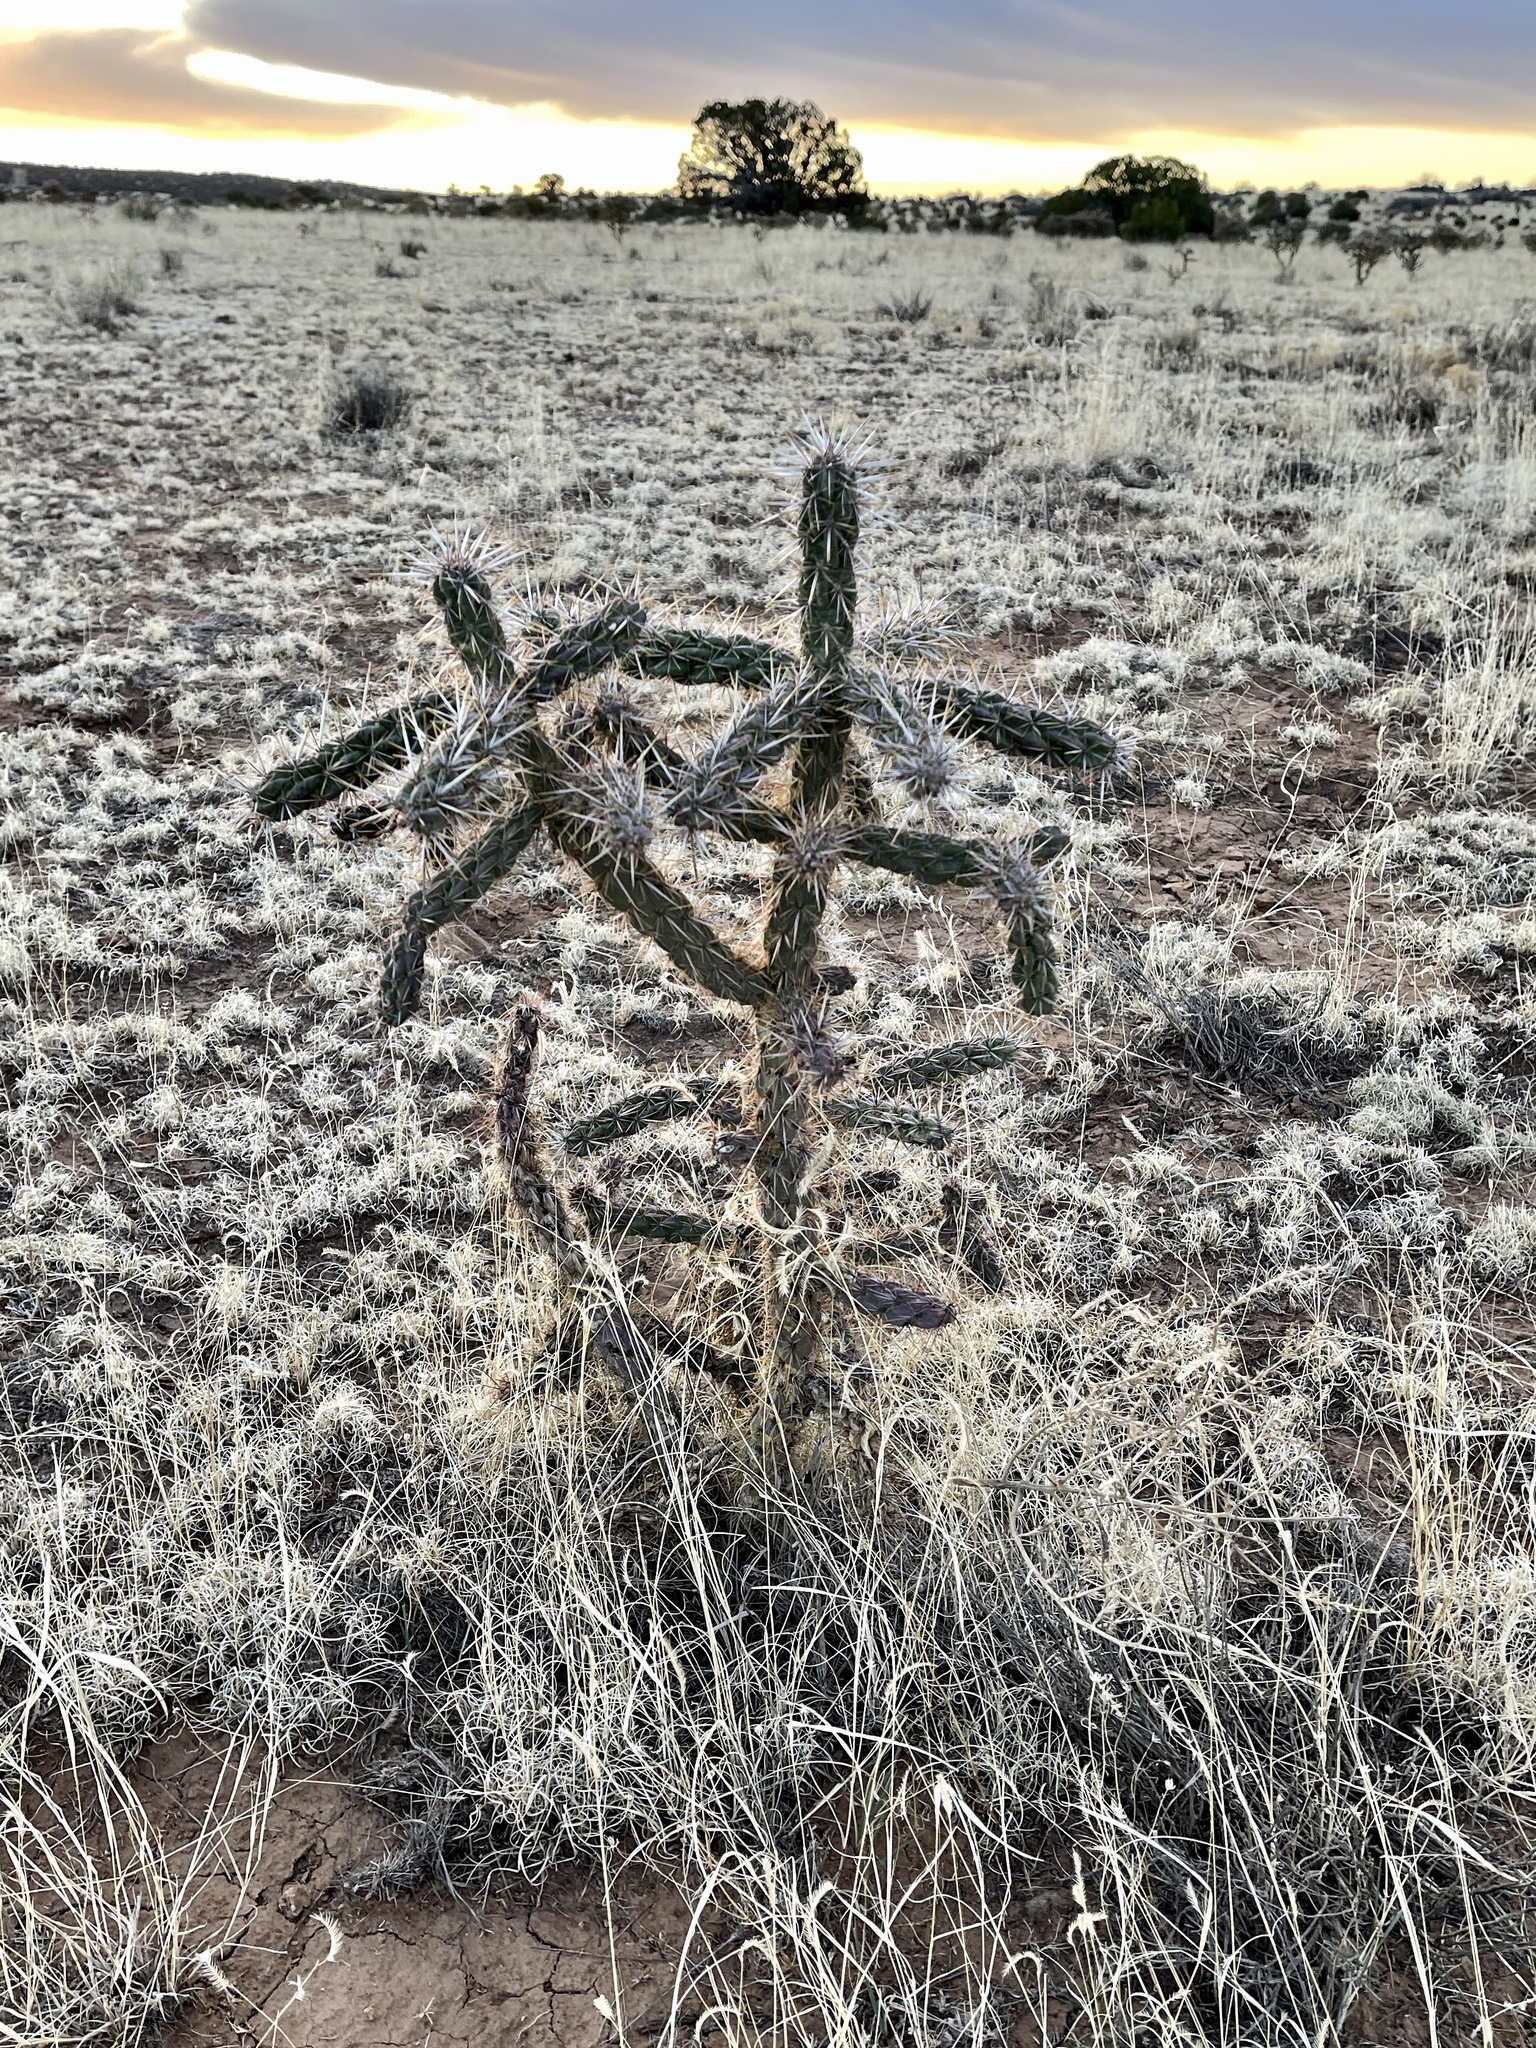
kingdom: Plantae
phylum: Tracheophyta
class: Magnoliopsida
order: Caryophyllales
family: Cactaceae
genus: Cylindropuntia
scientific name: Cylindropuntia imbricata
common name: Candelabrum cactus
